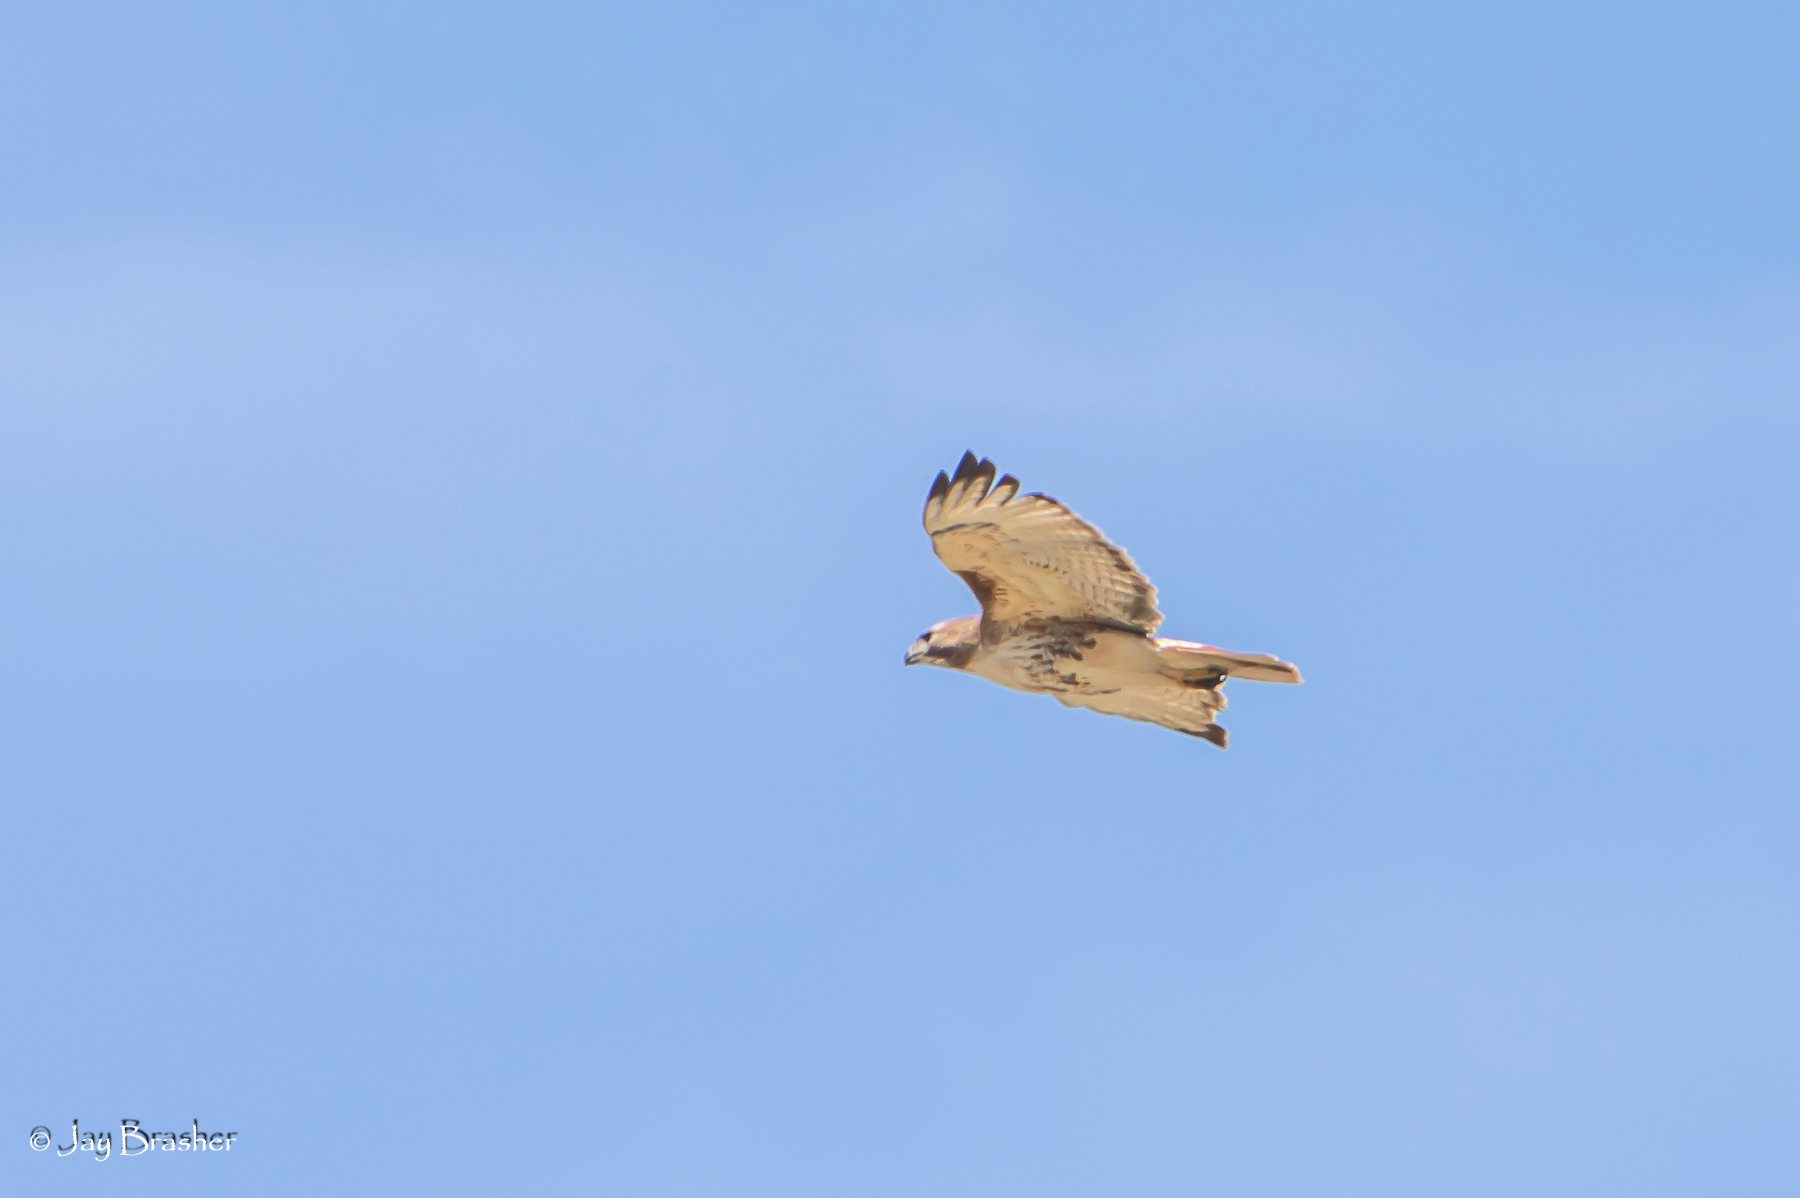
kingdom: Animalia
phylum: Chordata
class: Aves
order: Accipitriformes
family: Accipitridae
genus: Buteo
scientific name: Buteo jamaicensis
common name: Red-tailed hawk
